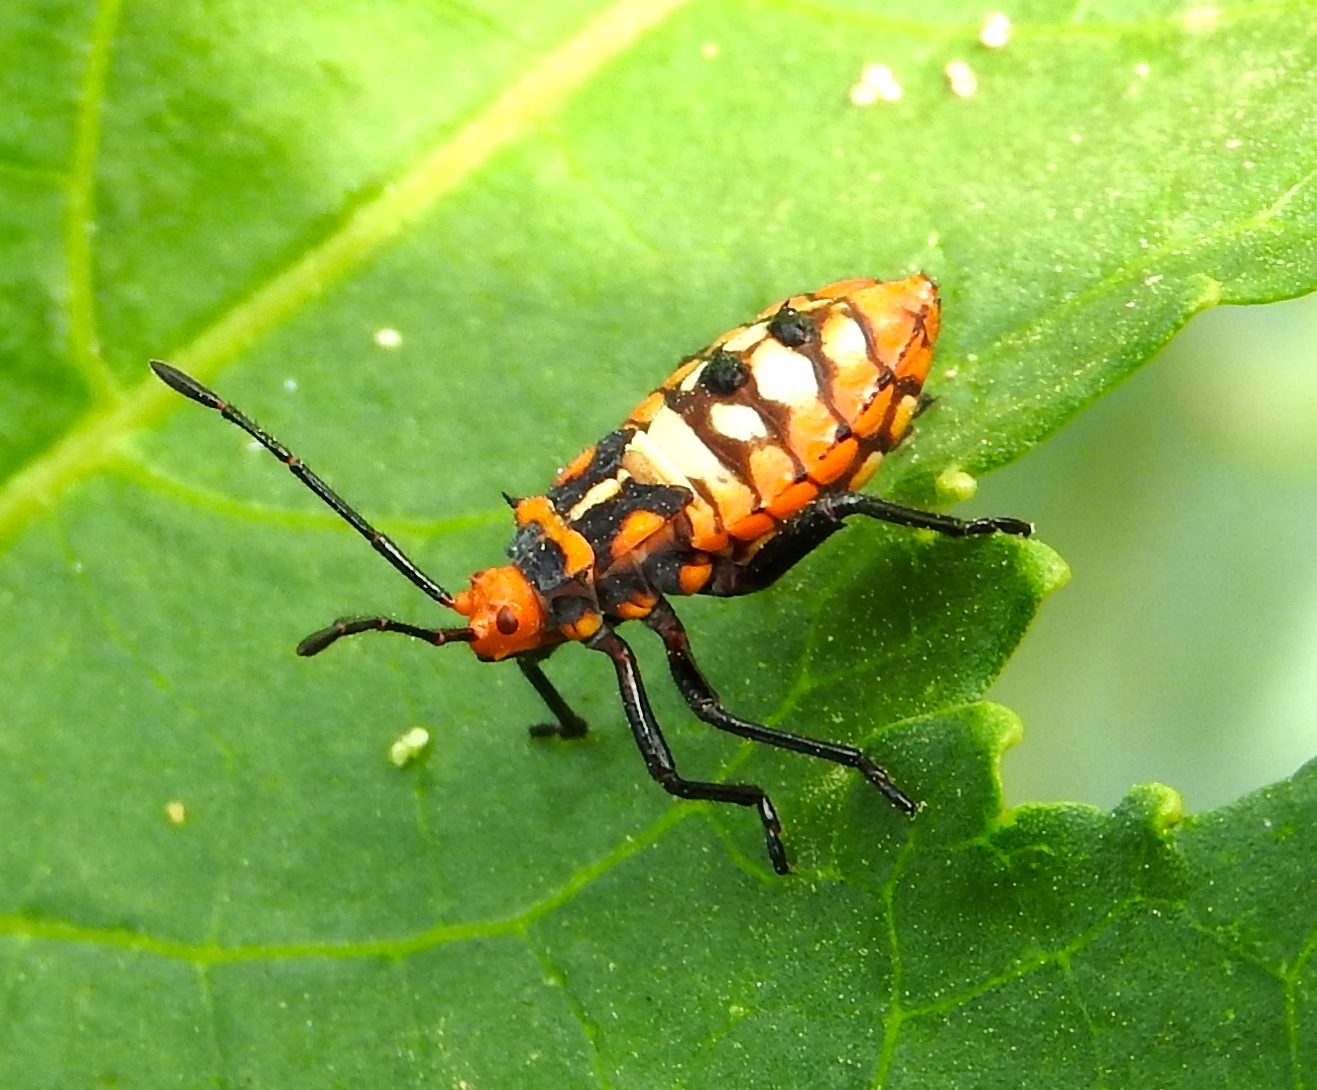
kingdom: Animalia
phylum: Arthropoda
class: Insecta
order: Hemiptera
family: Coreidae
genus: Sagotylus
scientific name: Sagotylus confluens
